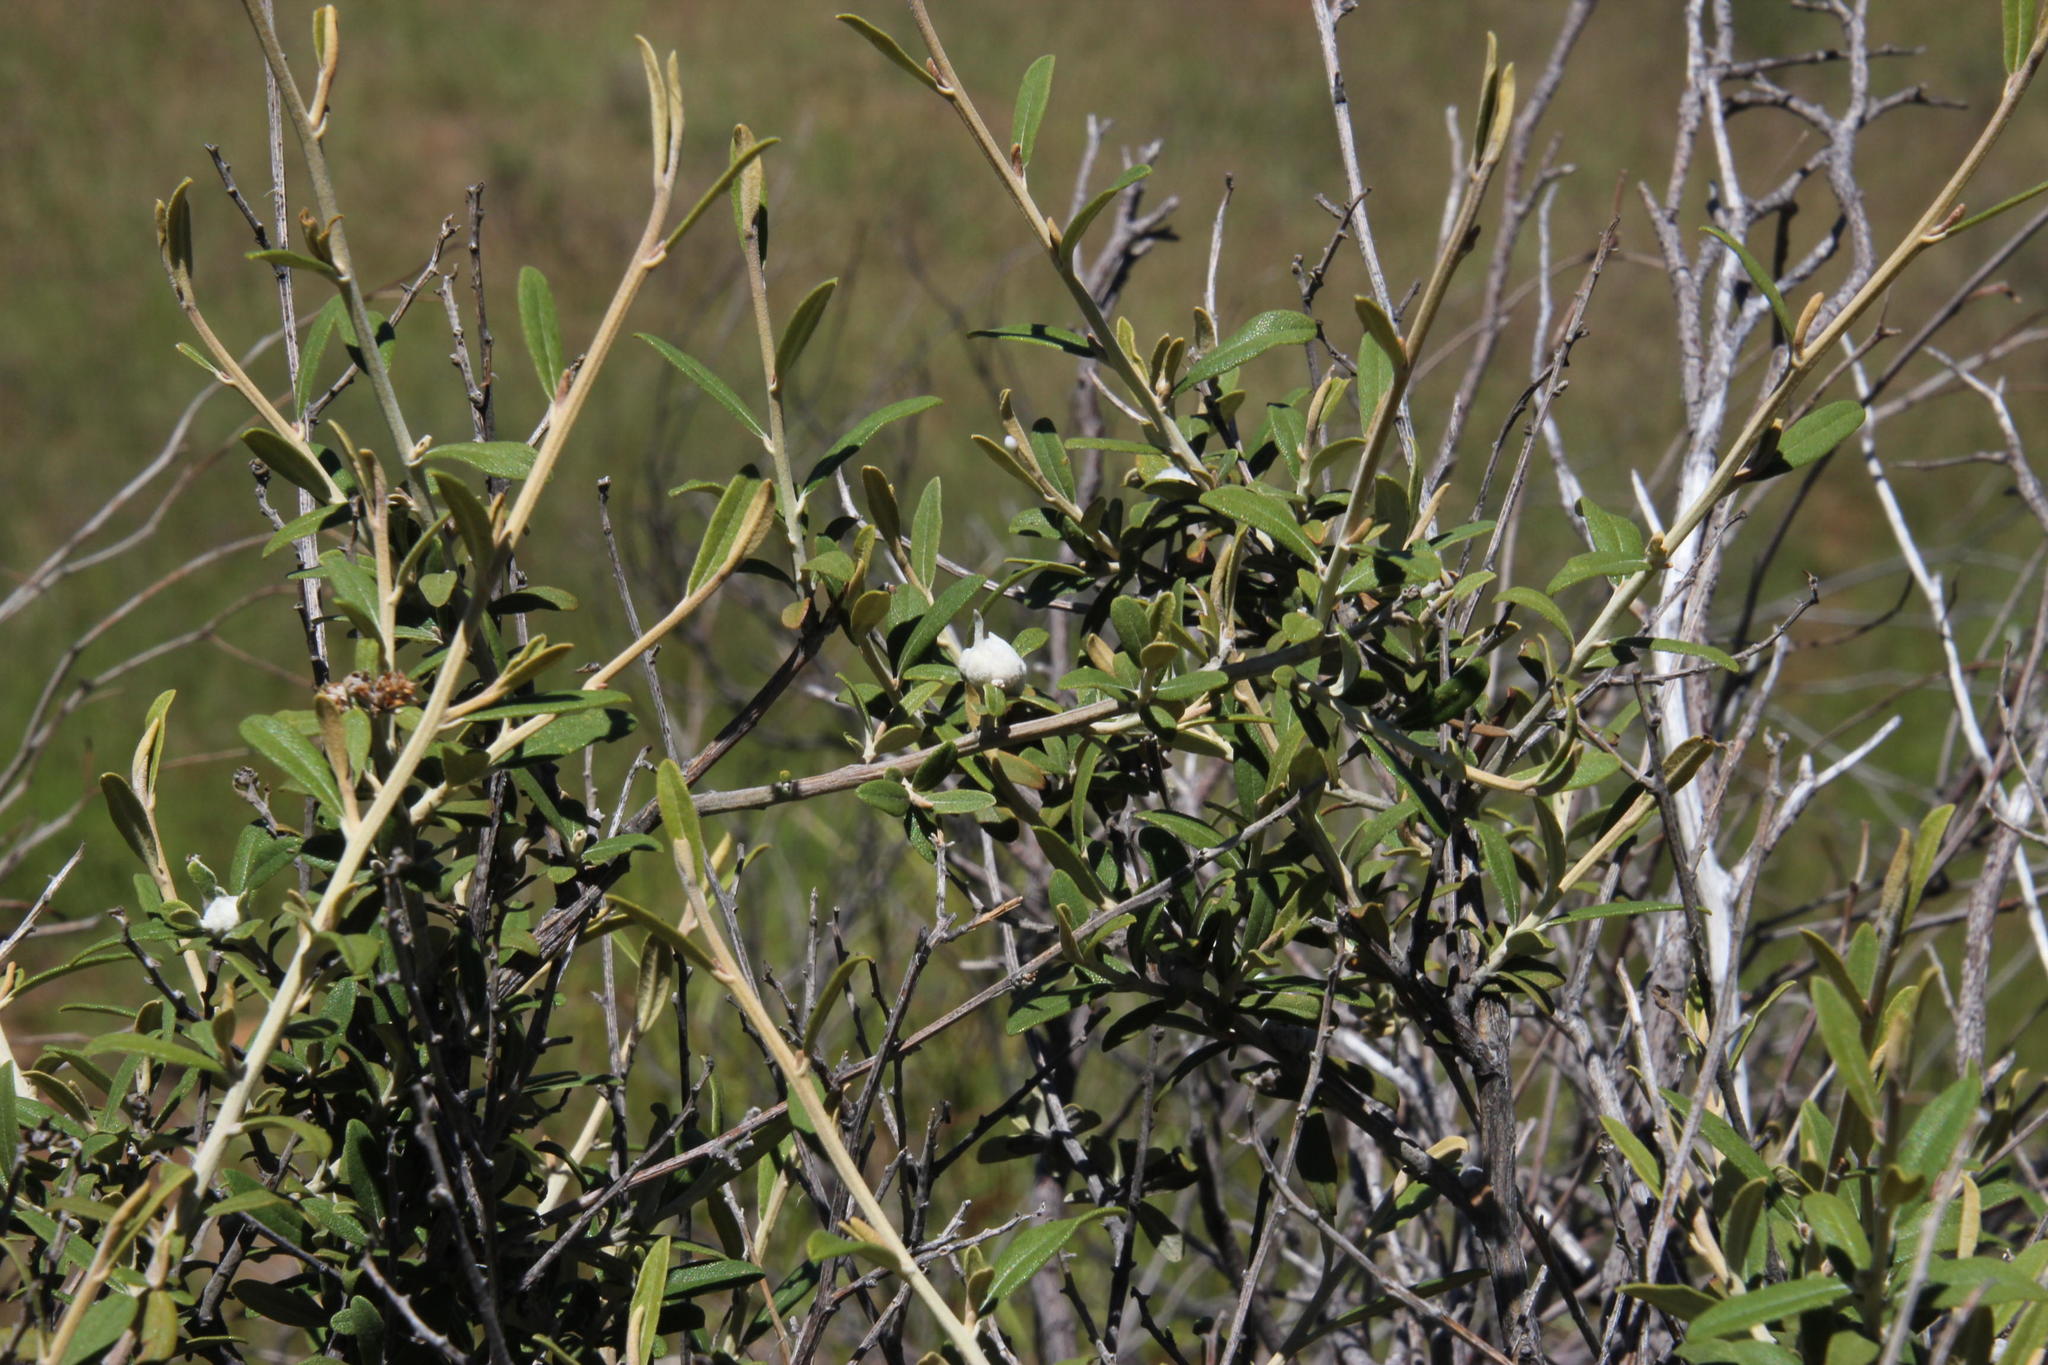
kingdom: Plantae
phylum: Tracheophyta
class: Magnoliopsida
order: Asterales
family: Asteraceae
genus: Tarchonanthus
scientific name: Tarchonanthus minor
